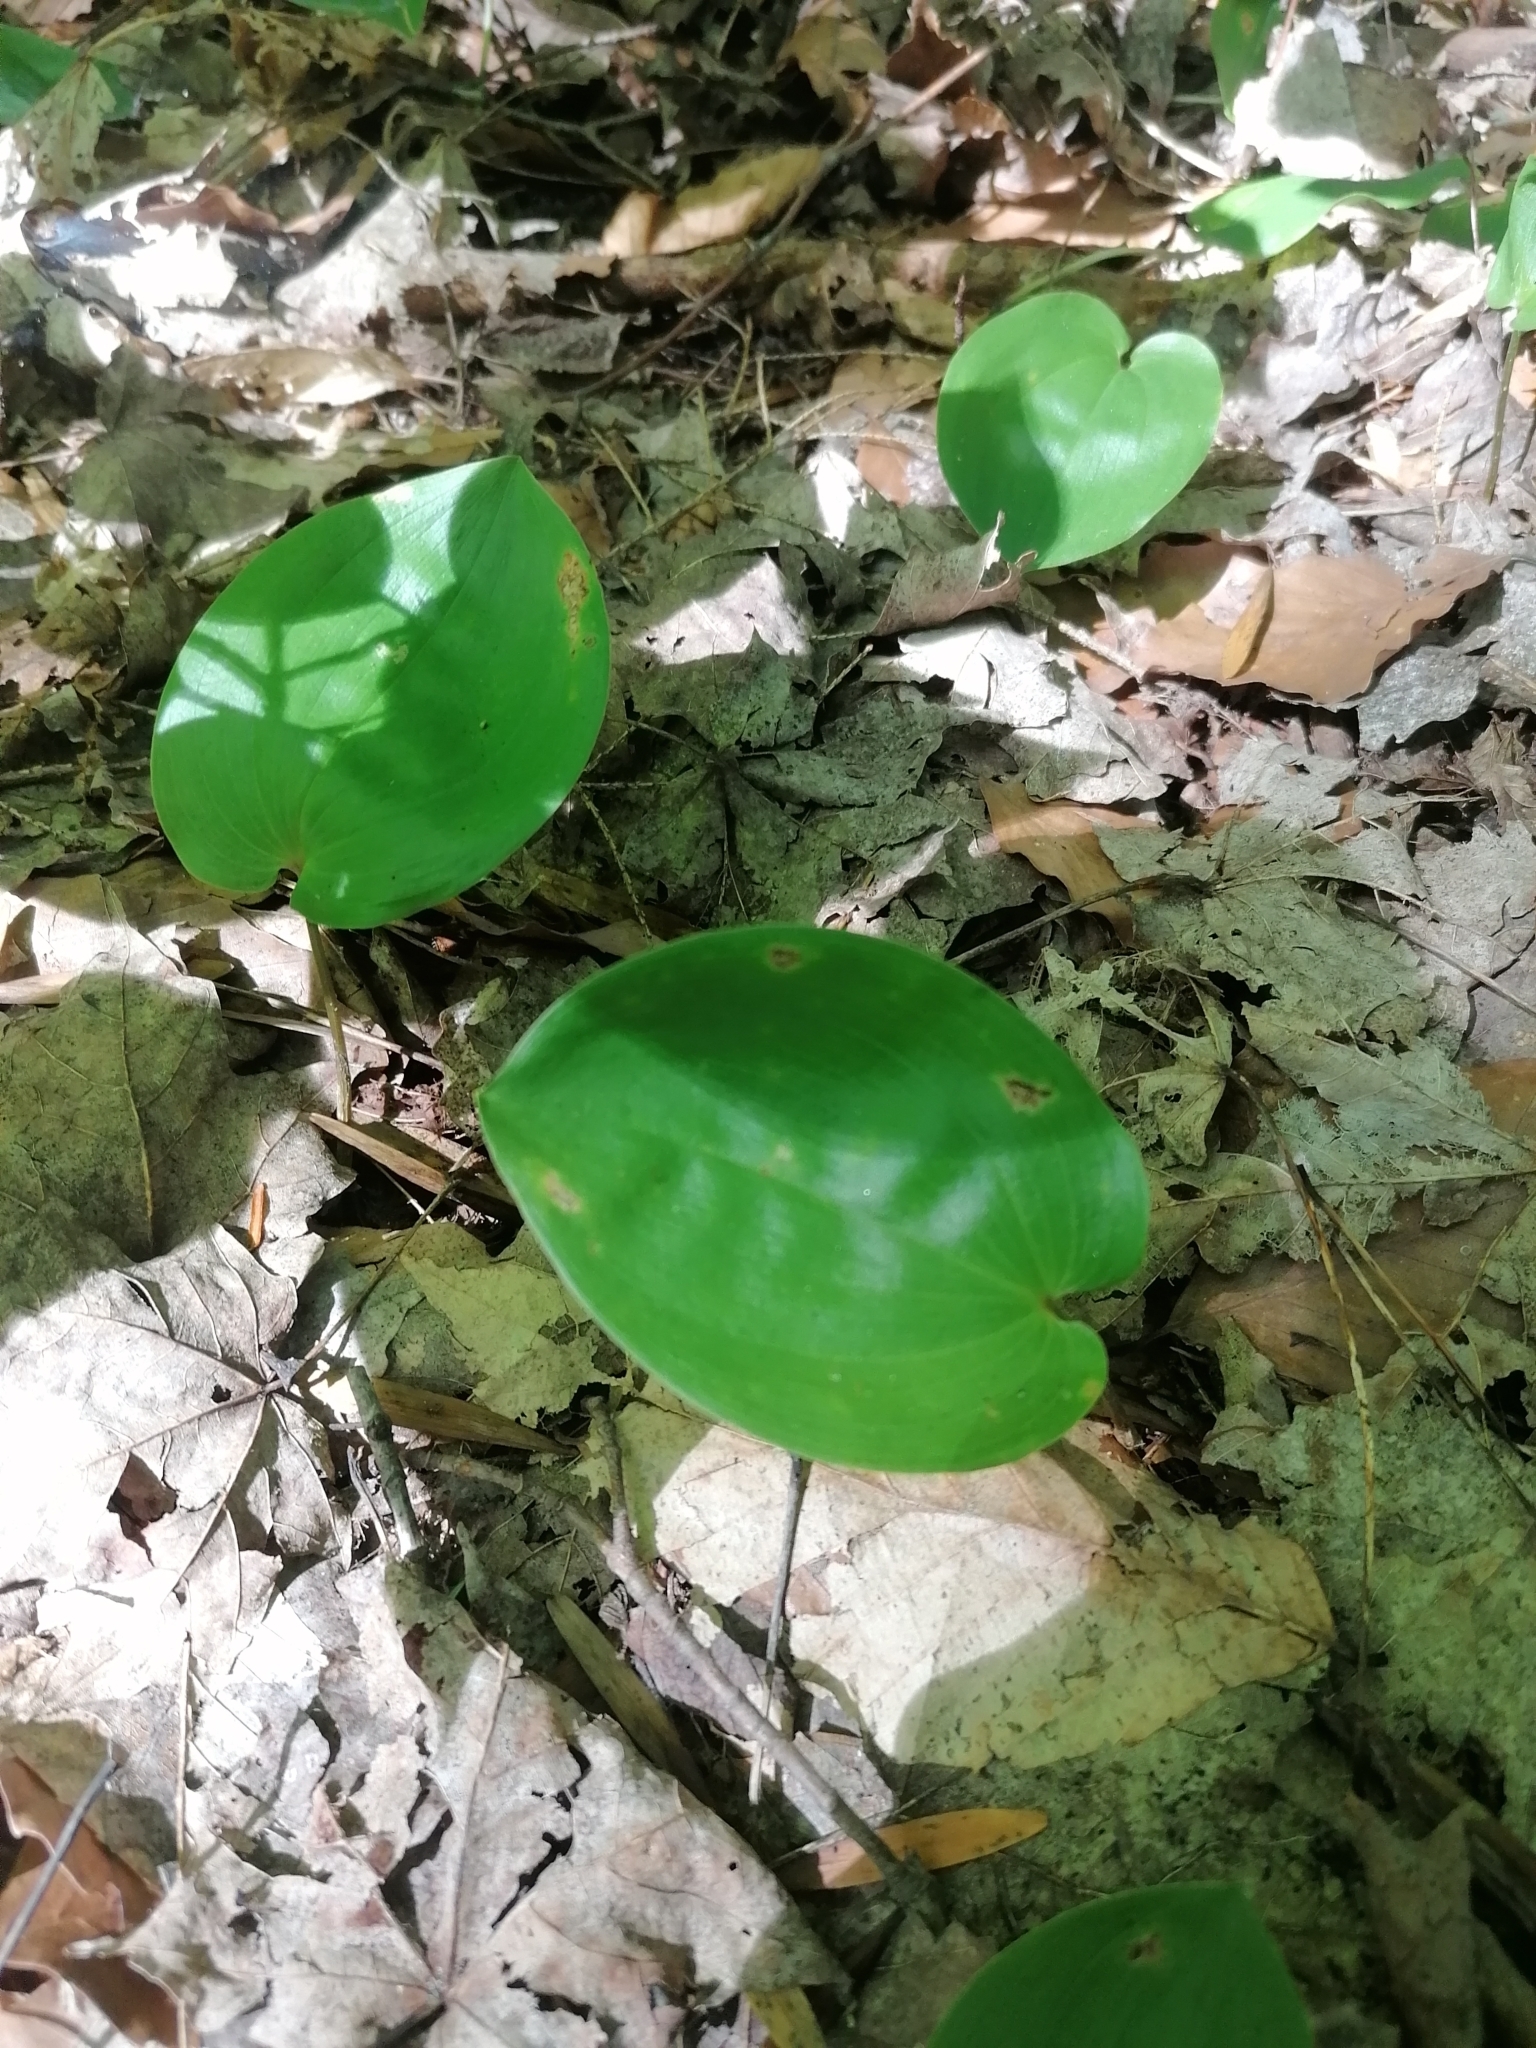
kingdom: Plantae
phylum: Tracheophyta
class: Liliopsida
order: Asparagales
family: Asparagaceae
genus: Maianthemum
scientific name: Maianthemum canadense
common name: False lily-of-the-valley
